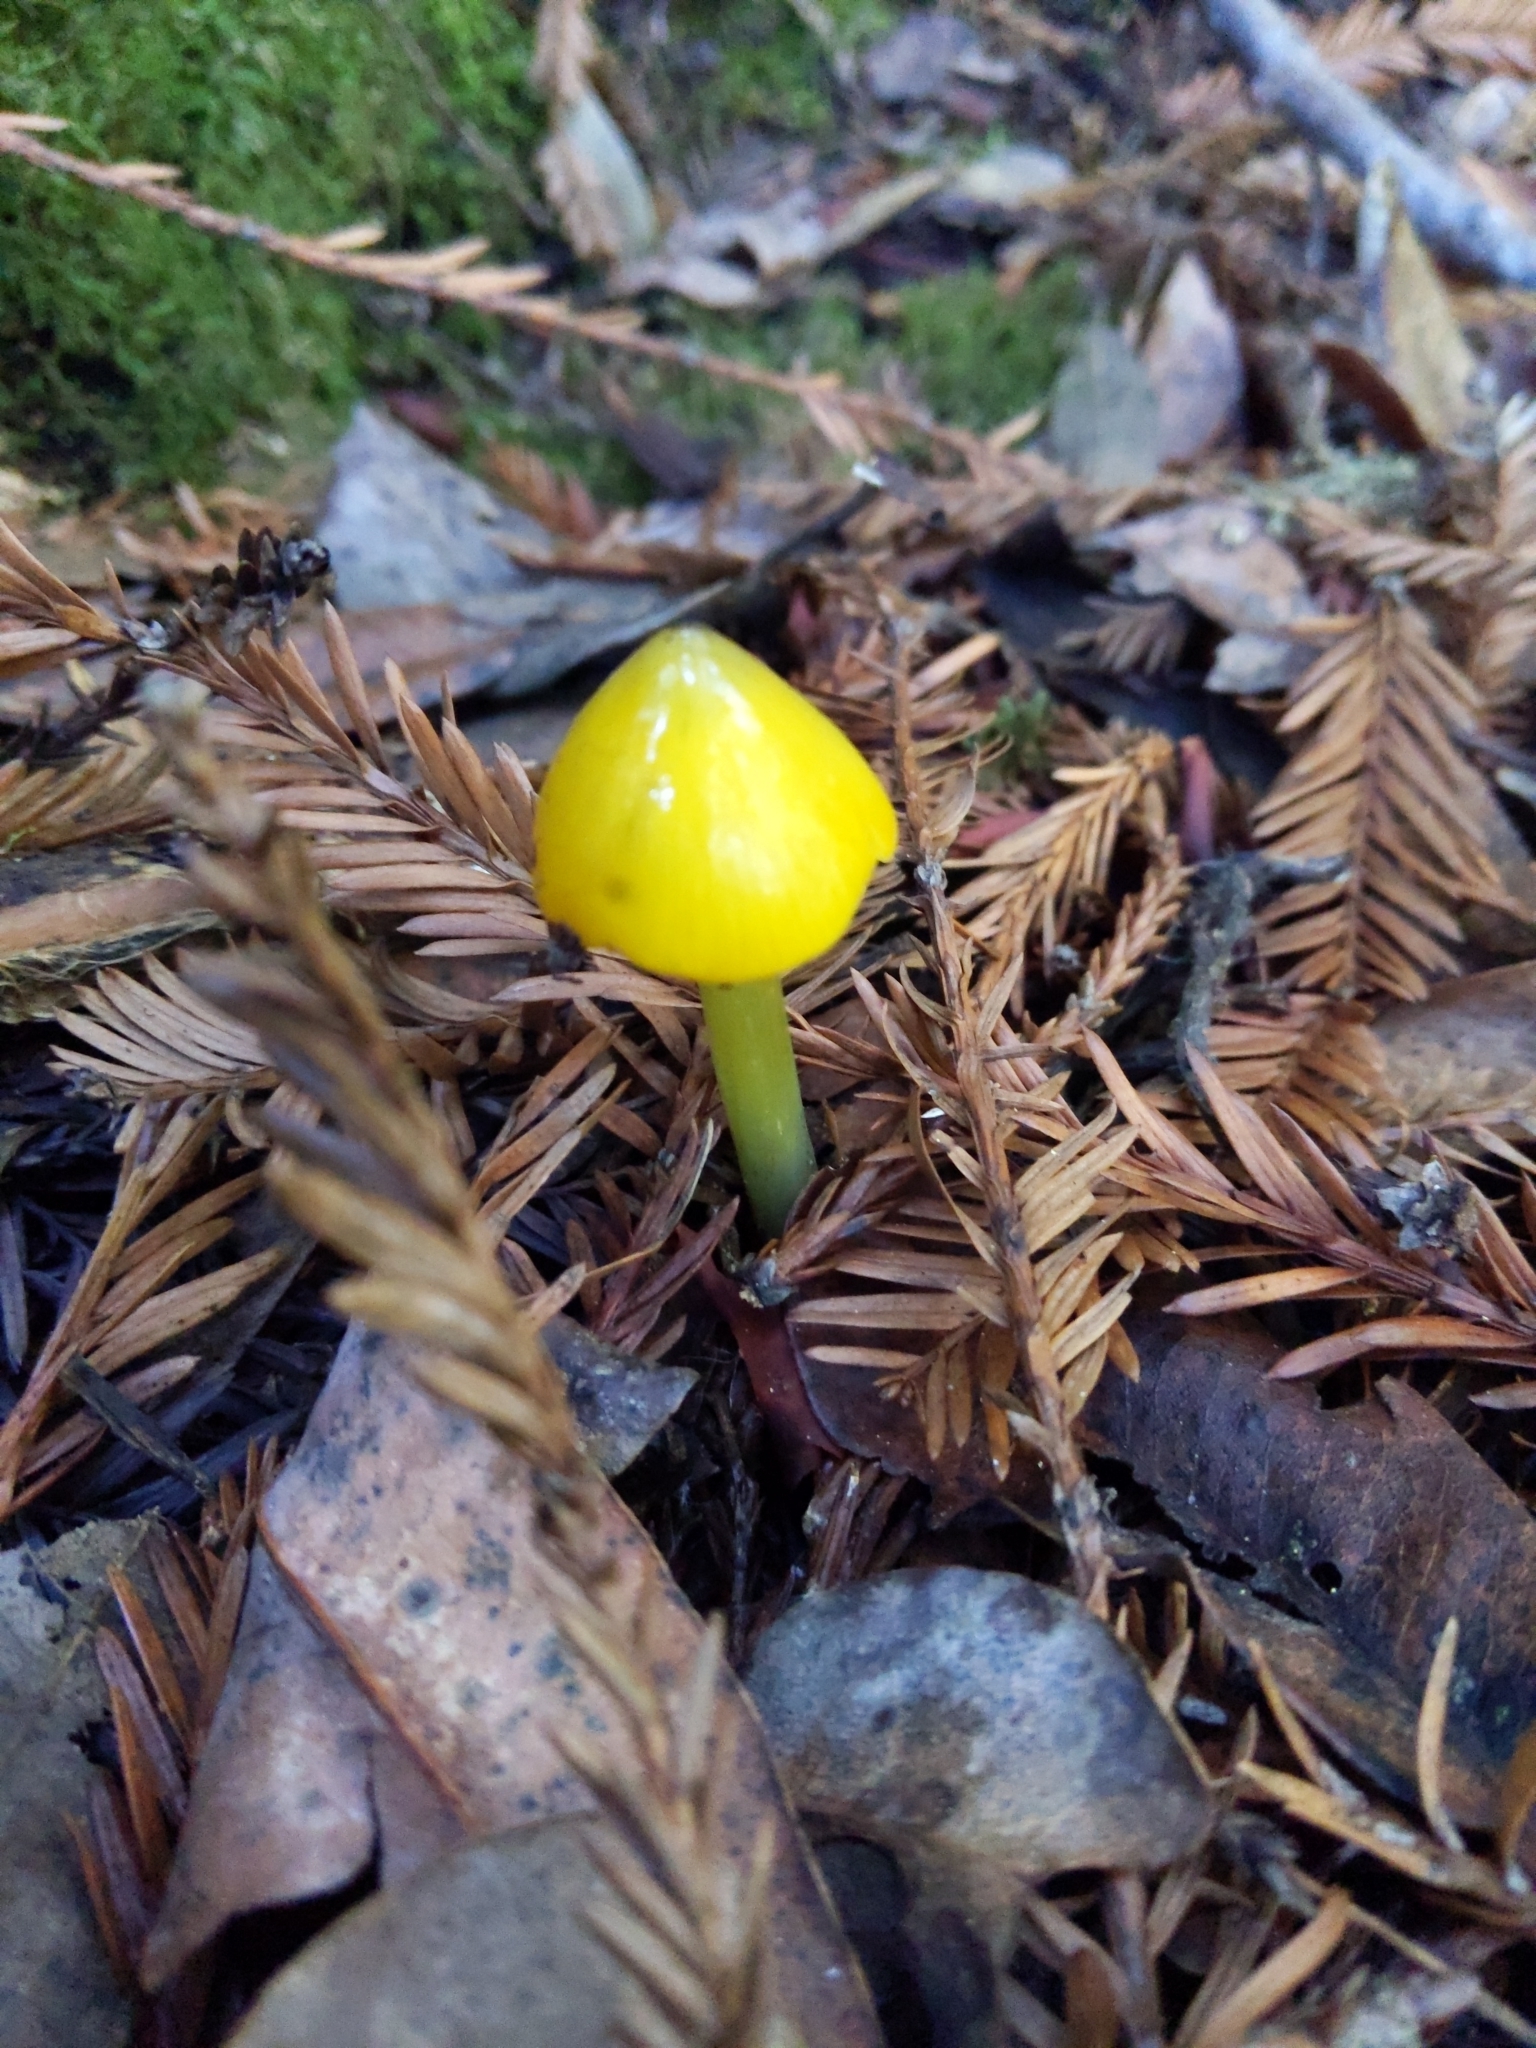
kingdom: Fungi
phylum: Basidiomycota
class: Agaricomycetes
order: Agaricales
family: Hygrophoraceae
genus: Hygrocybe
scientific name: Hygrocybe acutoconica
